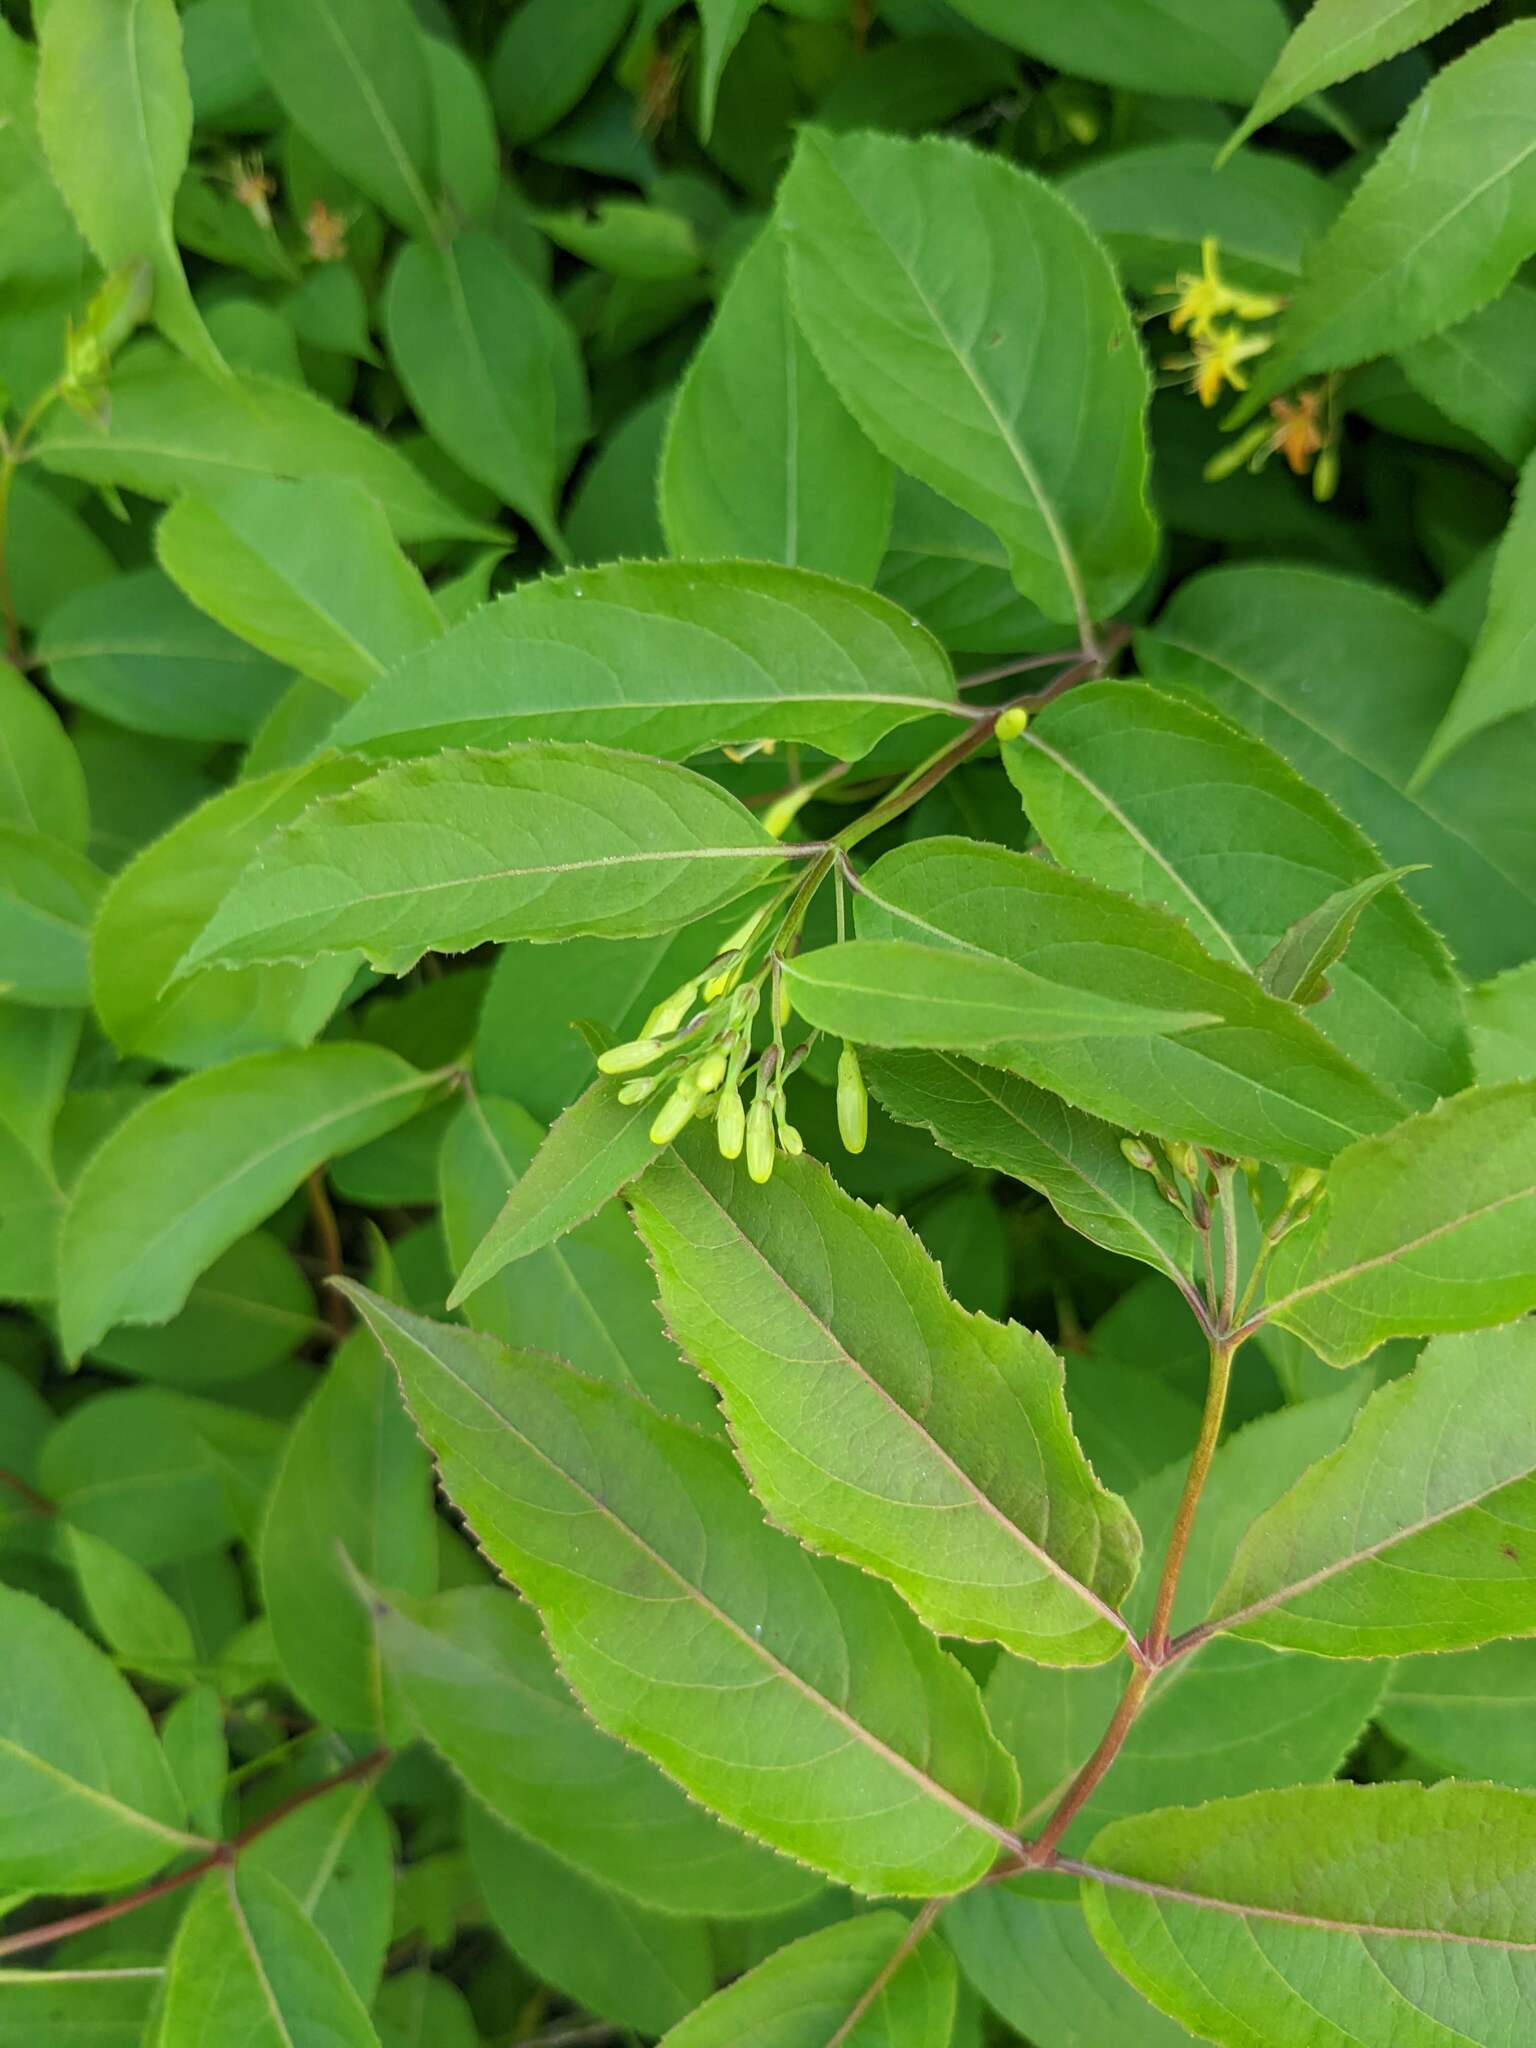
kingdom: Plantae
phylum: Tracheophyta
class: Magnoliopsida
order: Dipsacales
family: Caprifoliaceae
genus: Diervilla
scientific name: Diervilla lonicera
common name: Bush-honeysuckle
